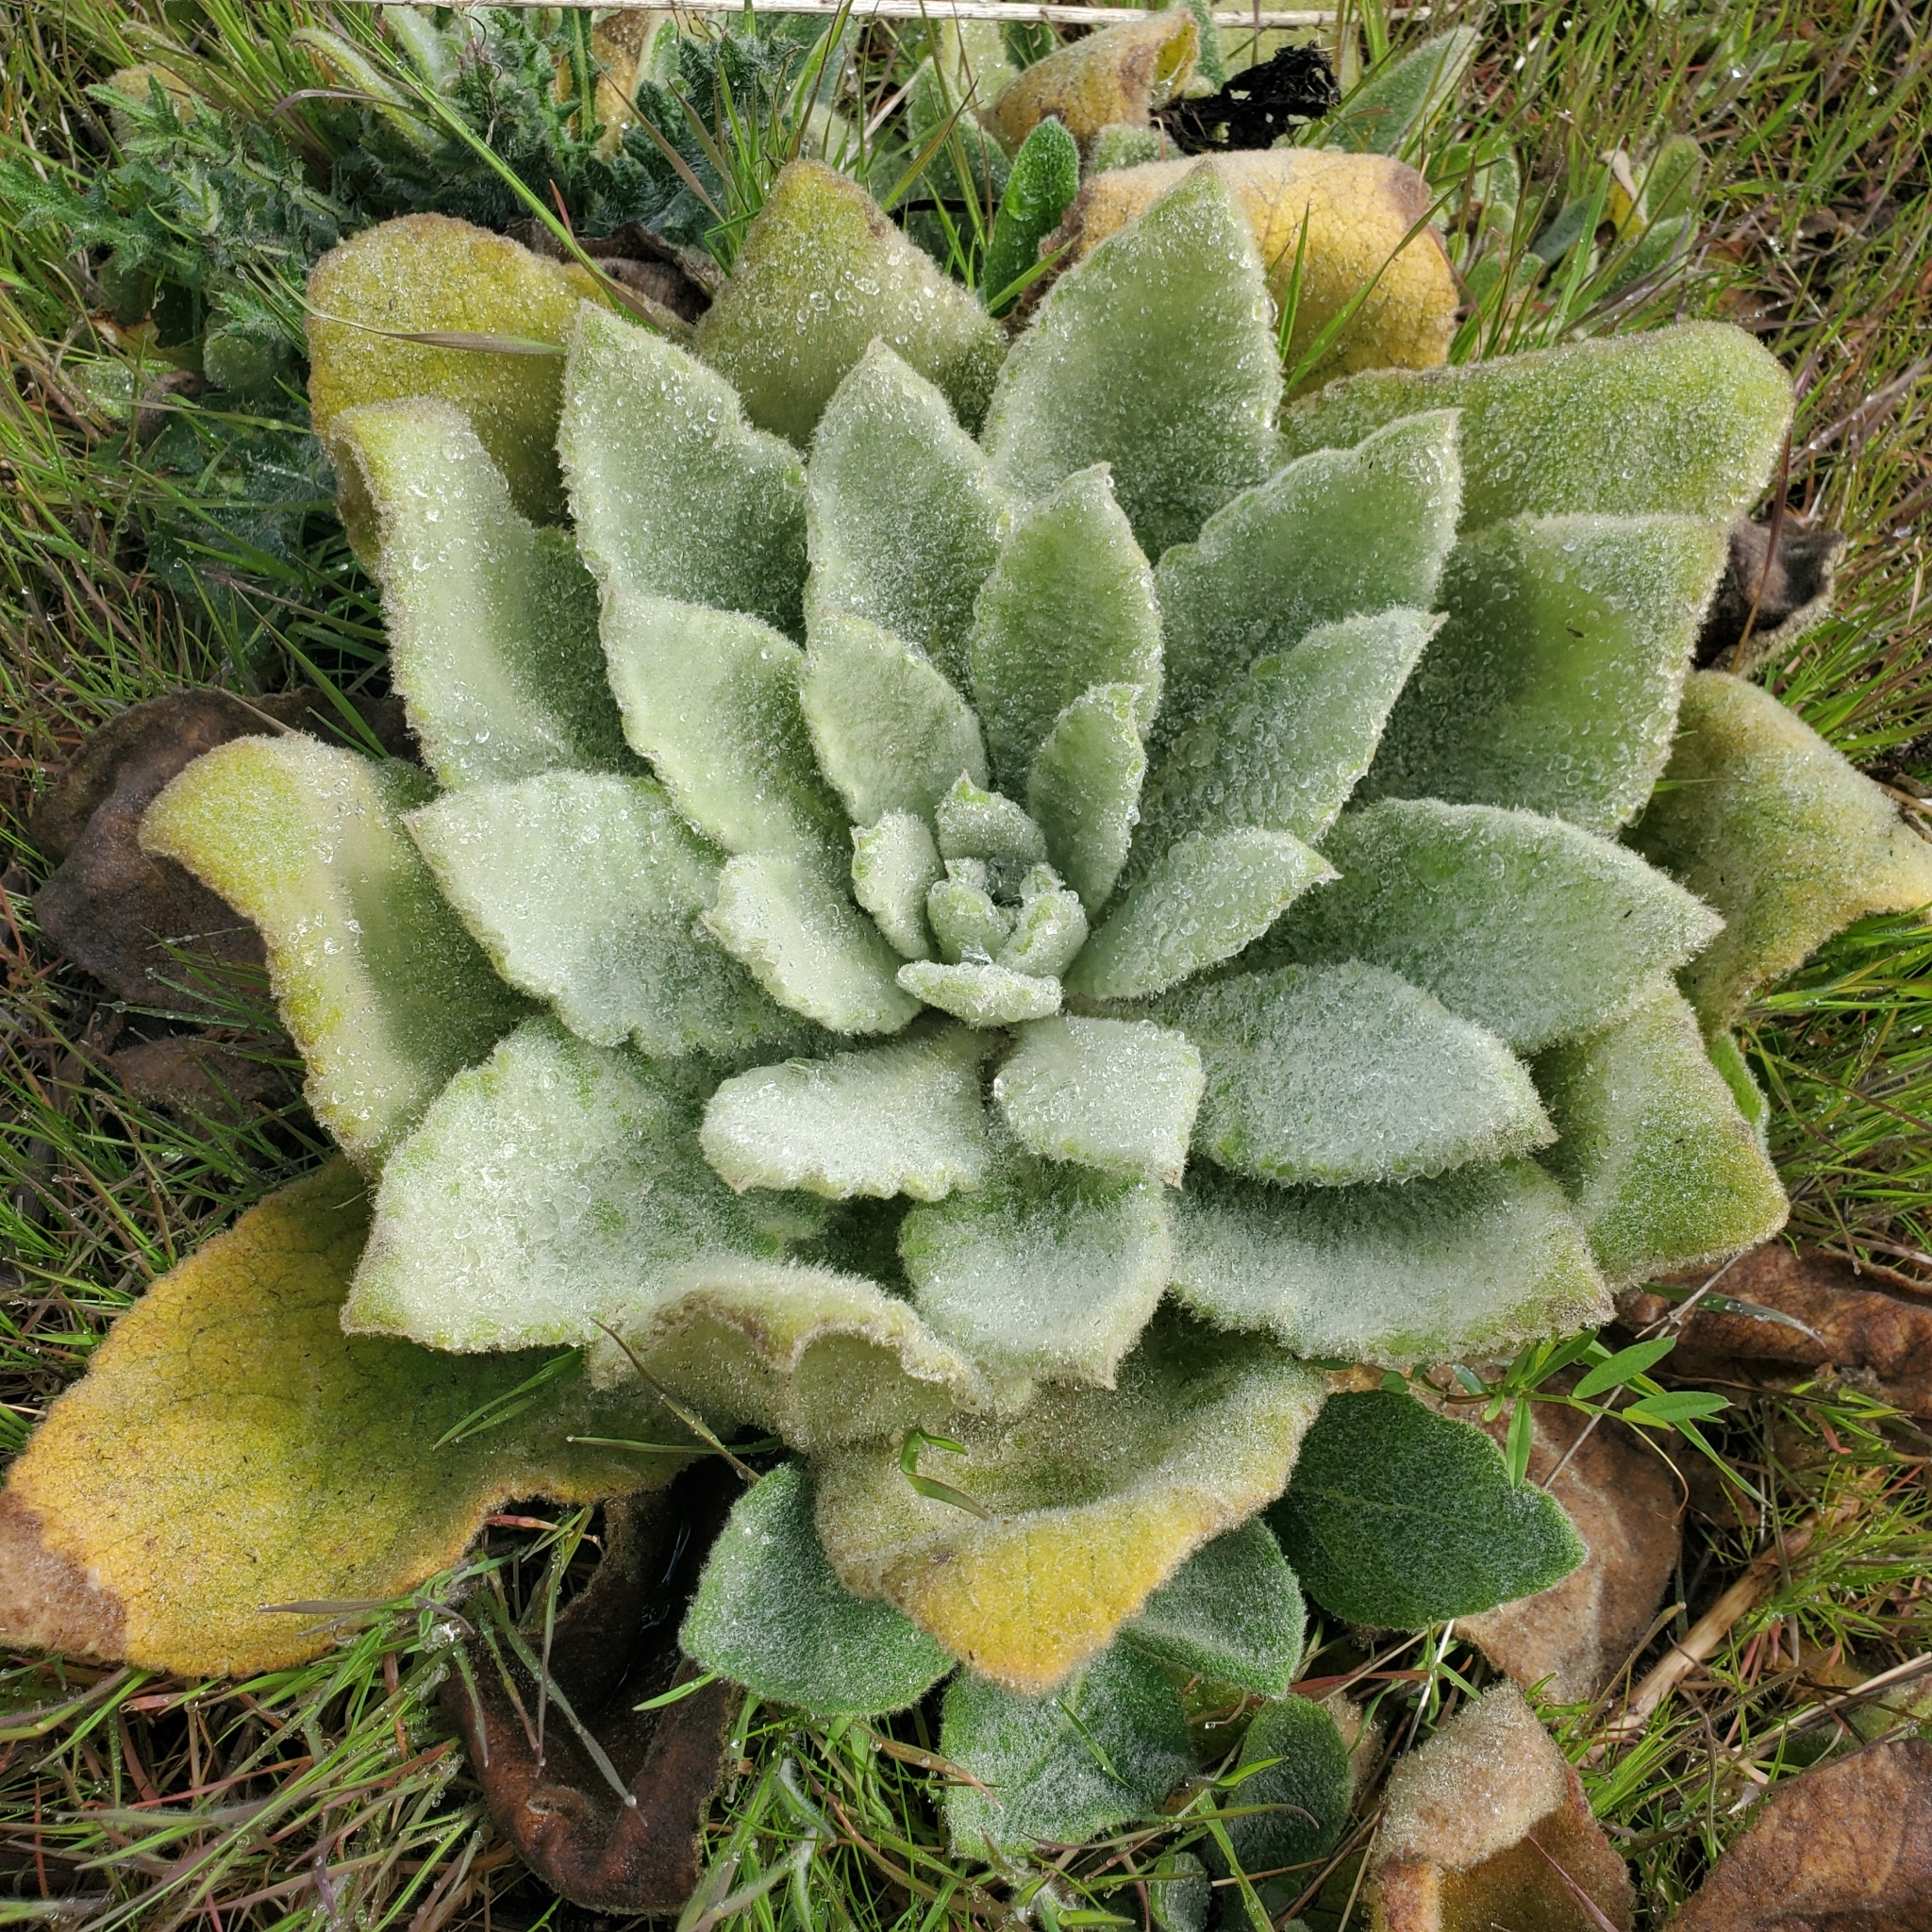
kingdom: Plantae
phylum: Tracheophyta
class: Magnoliopsida
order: Lamiales
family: Scrophulariaceae
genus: Verbascum
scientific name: Verbascum thapsus
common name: Common mullein
